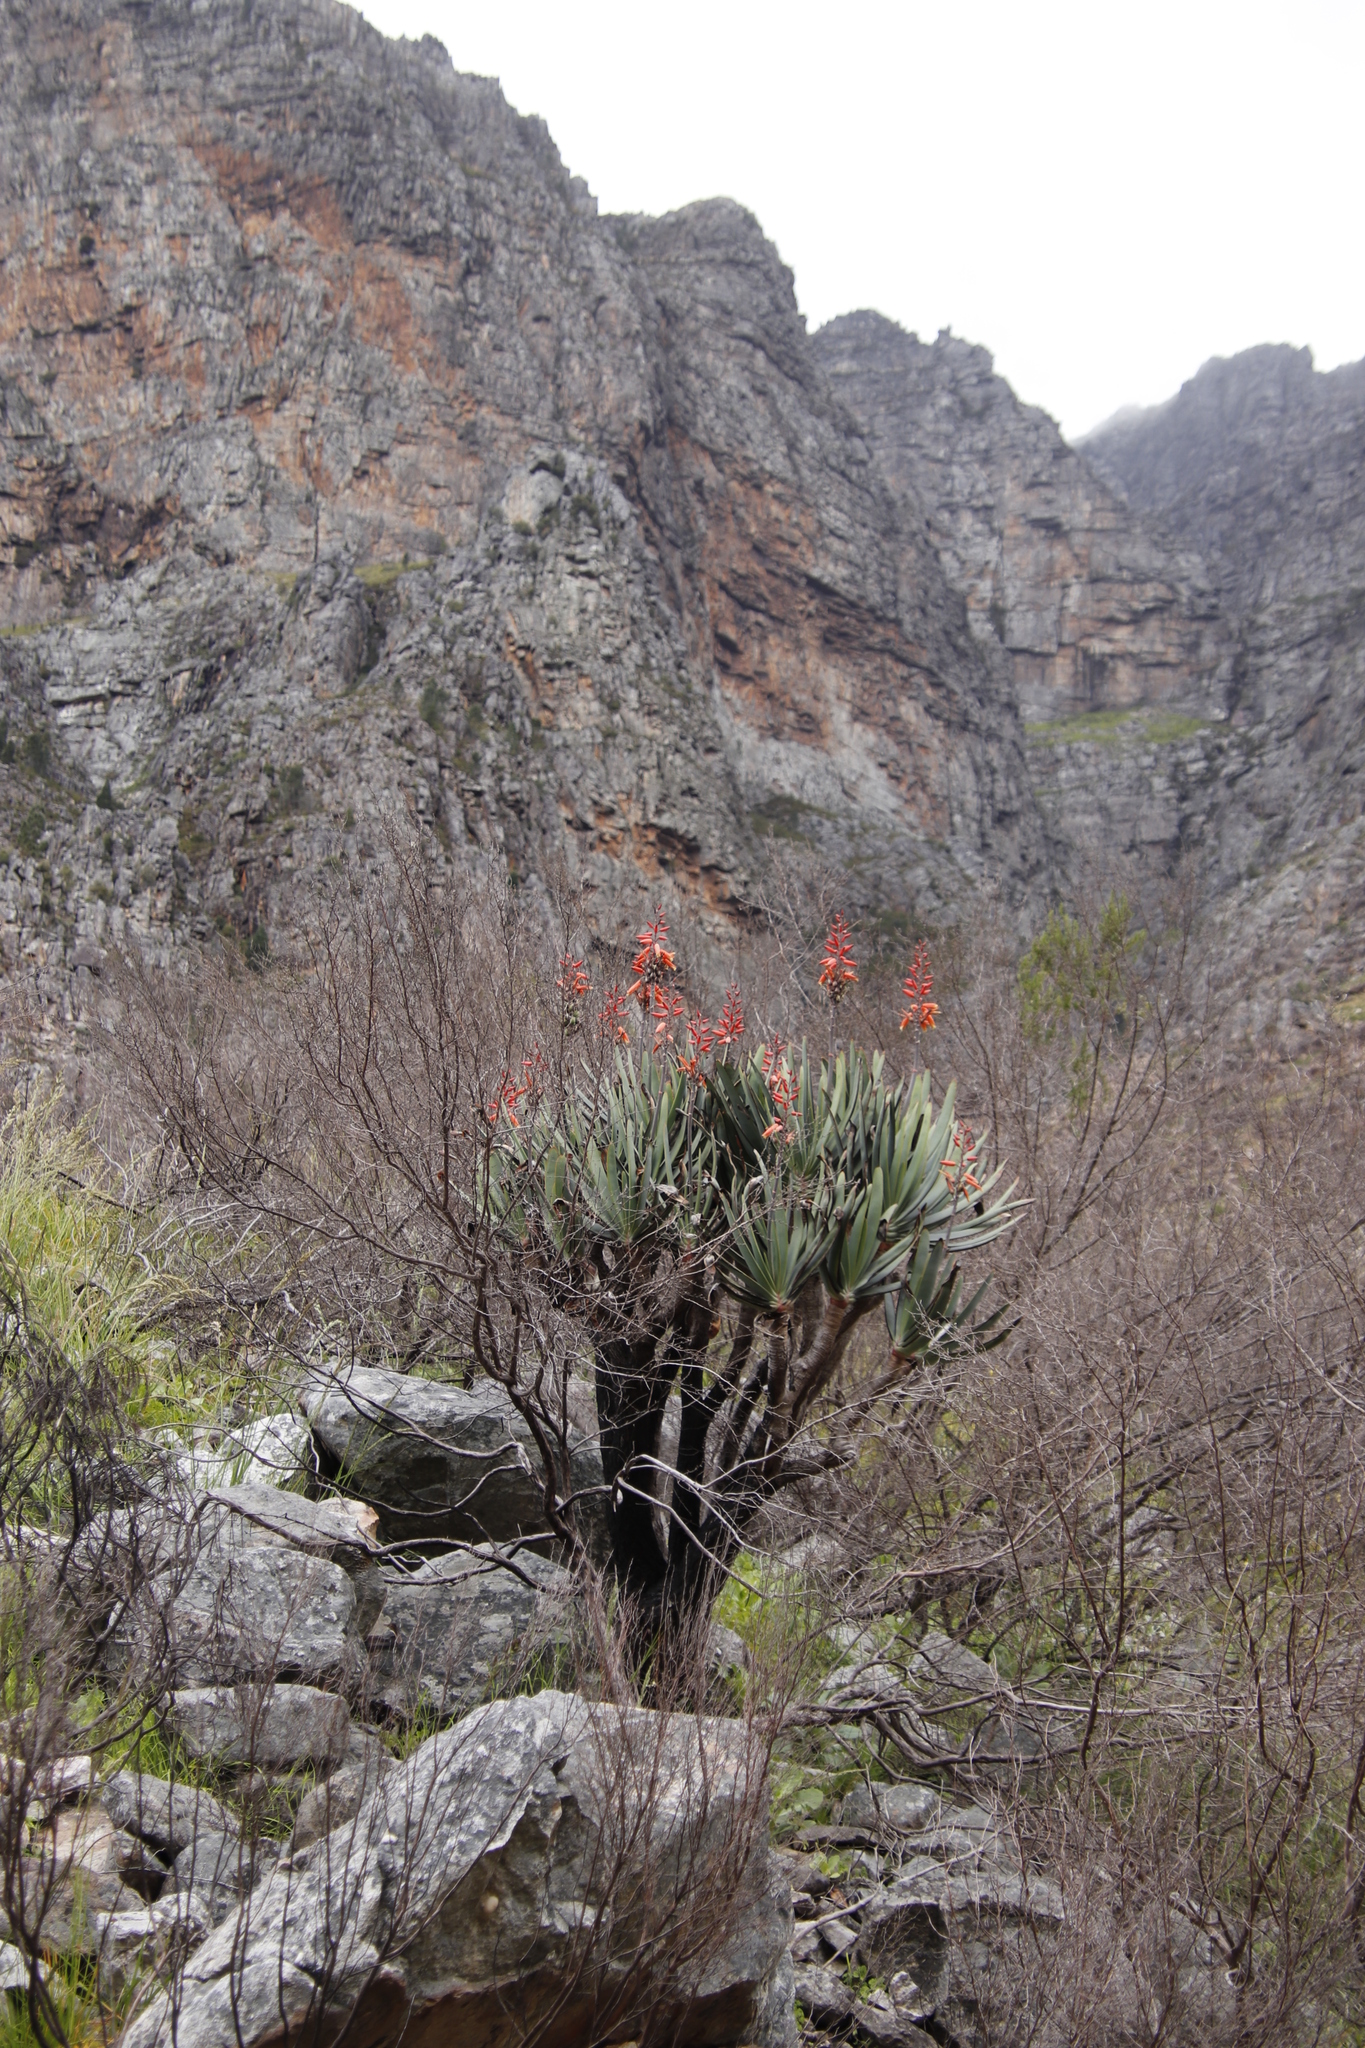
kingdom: Plantae
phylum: Tracheophyta
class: Liliopsida
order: Asparagales
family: Asphodelaceae
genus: Kumara
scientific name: Kumara plicatilis
